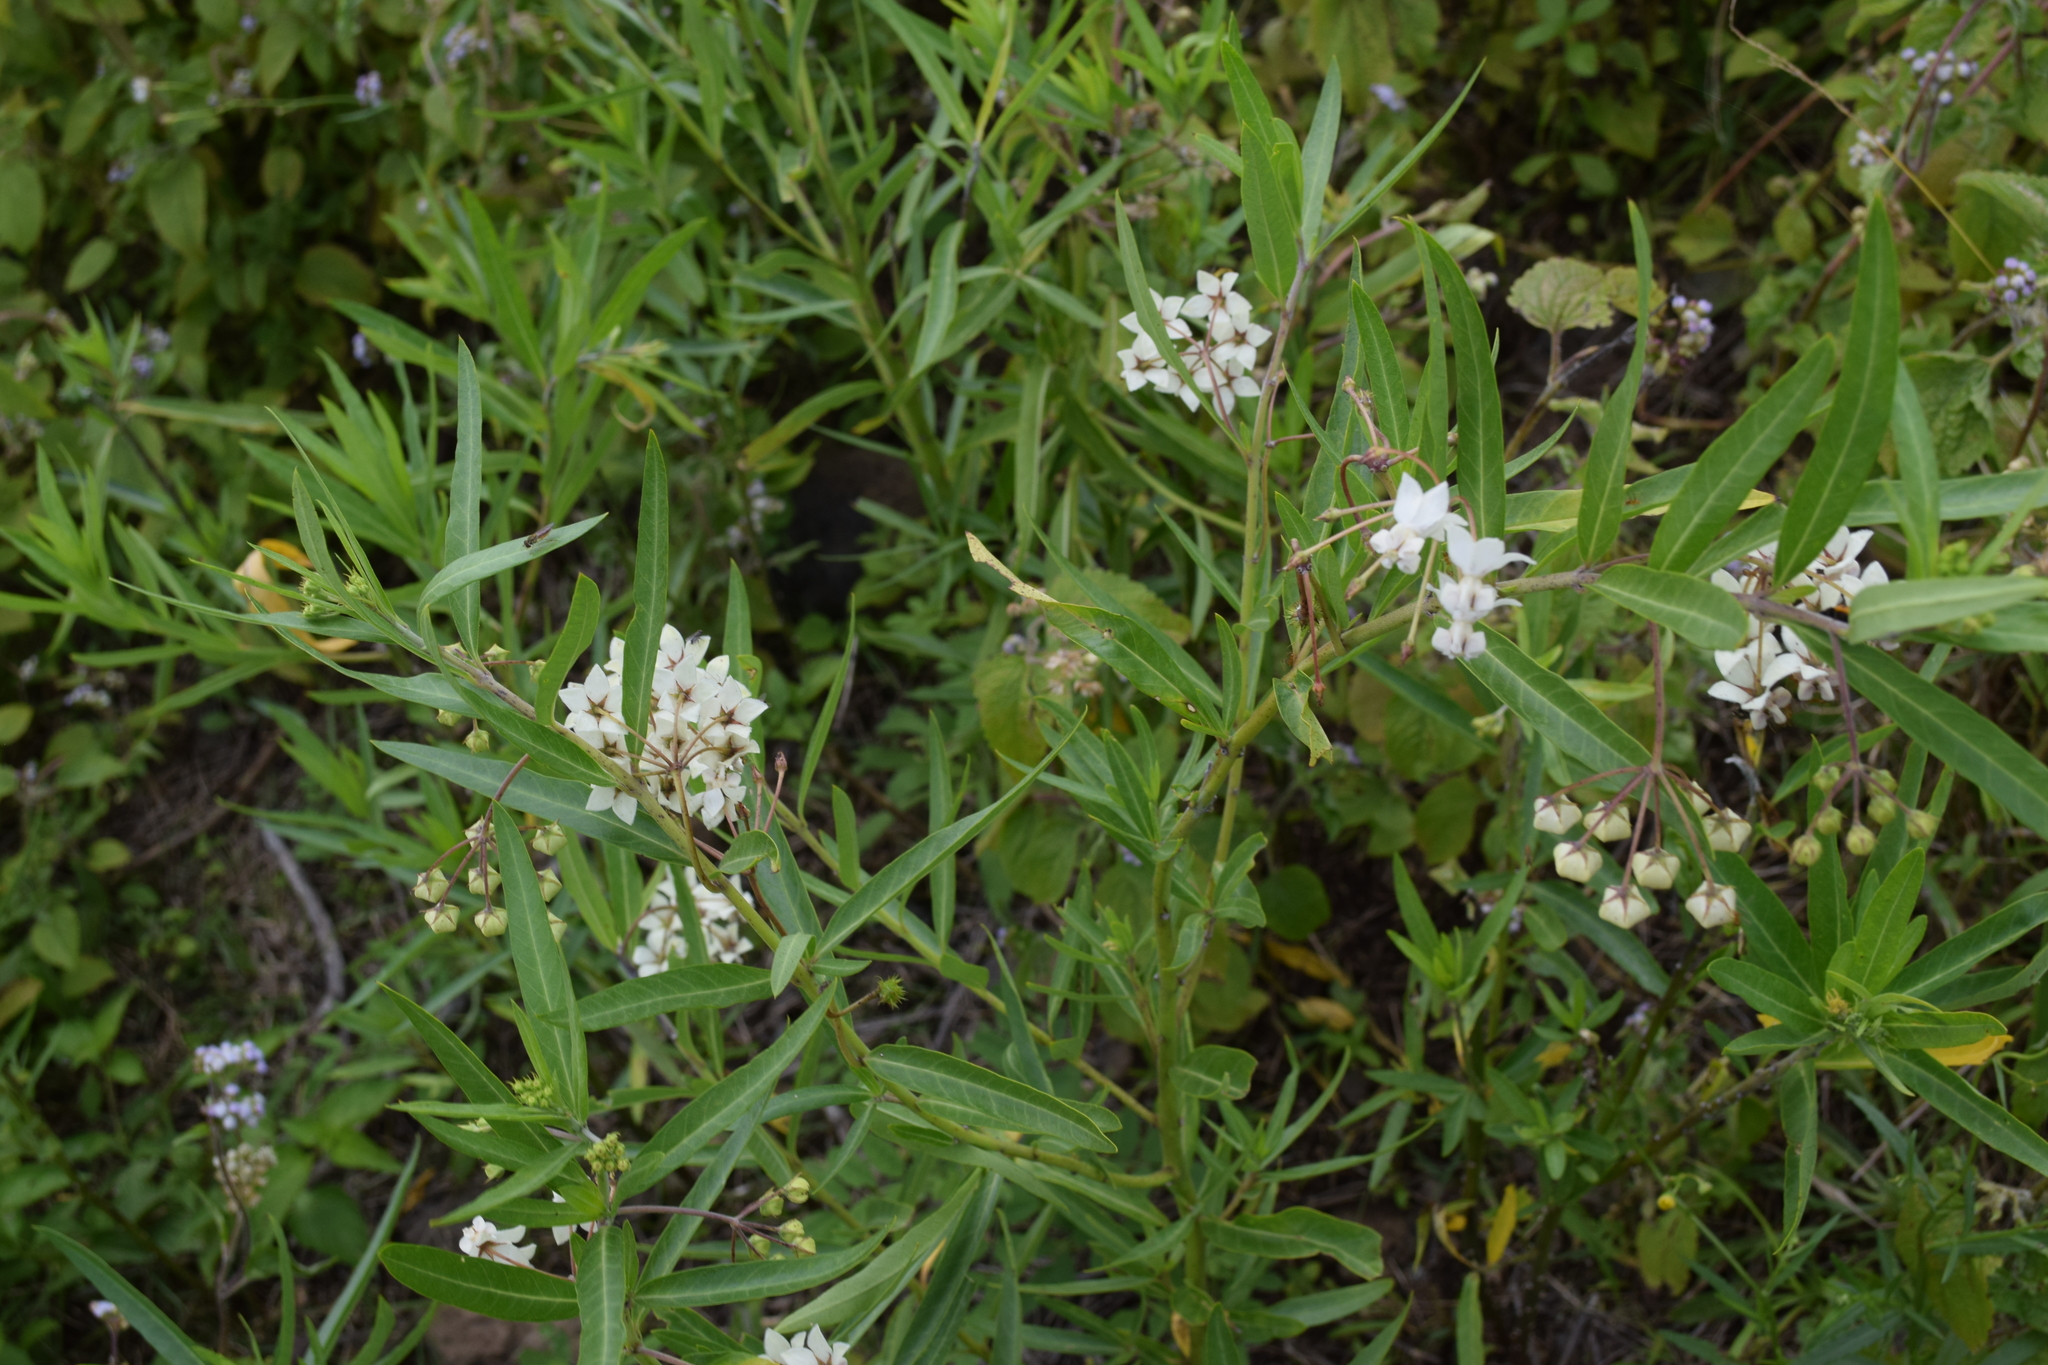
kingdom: Plantae
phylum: Tracheophyta
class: Magnoliopsida
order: Gentianales
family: Apocynaceae
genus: Gomphocarpus
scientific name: Gomphocarpus physocarpus
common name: Balloon cotton bush
